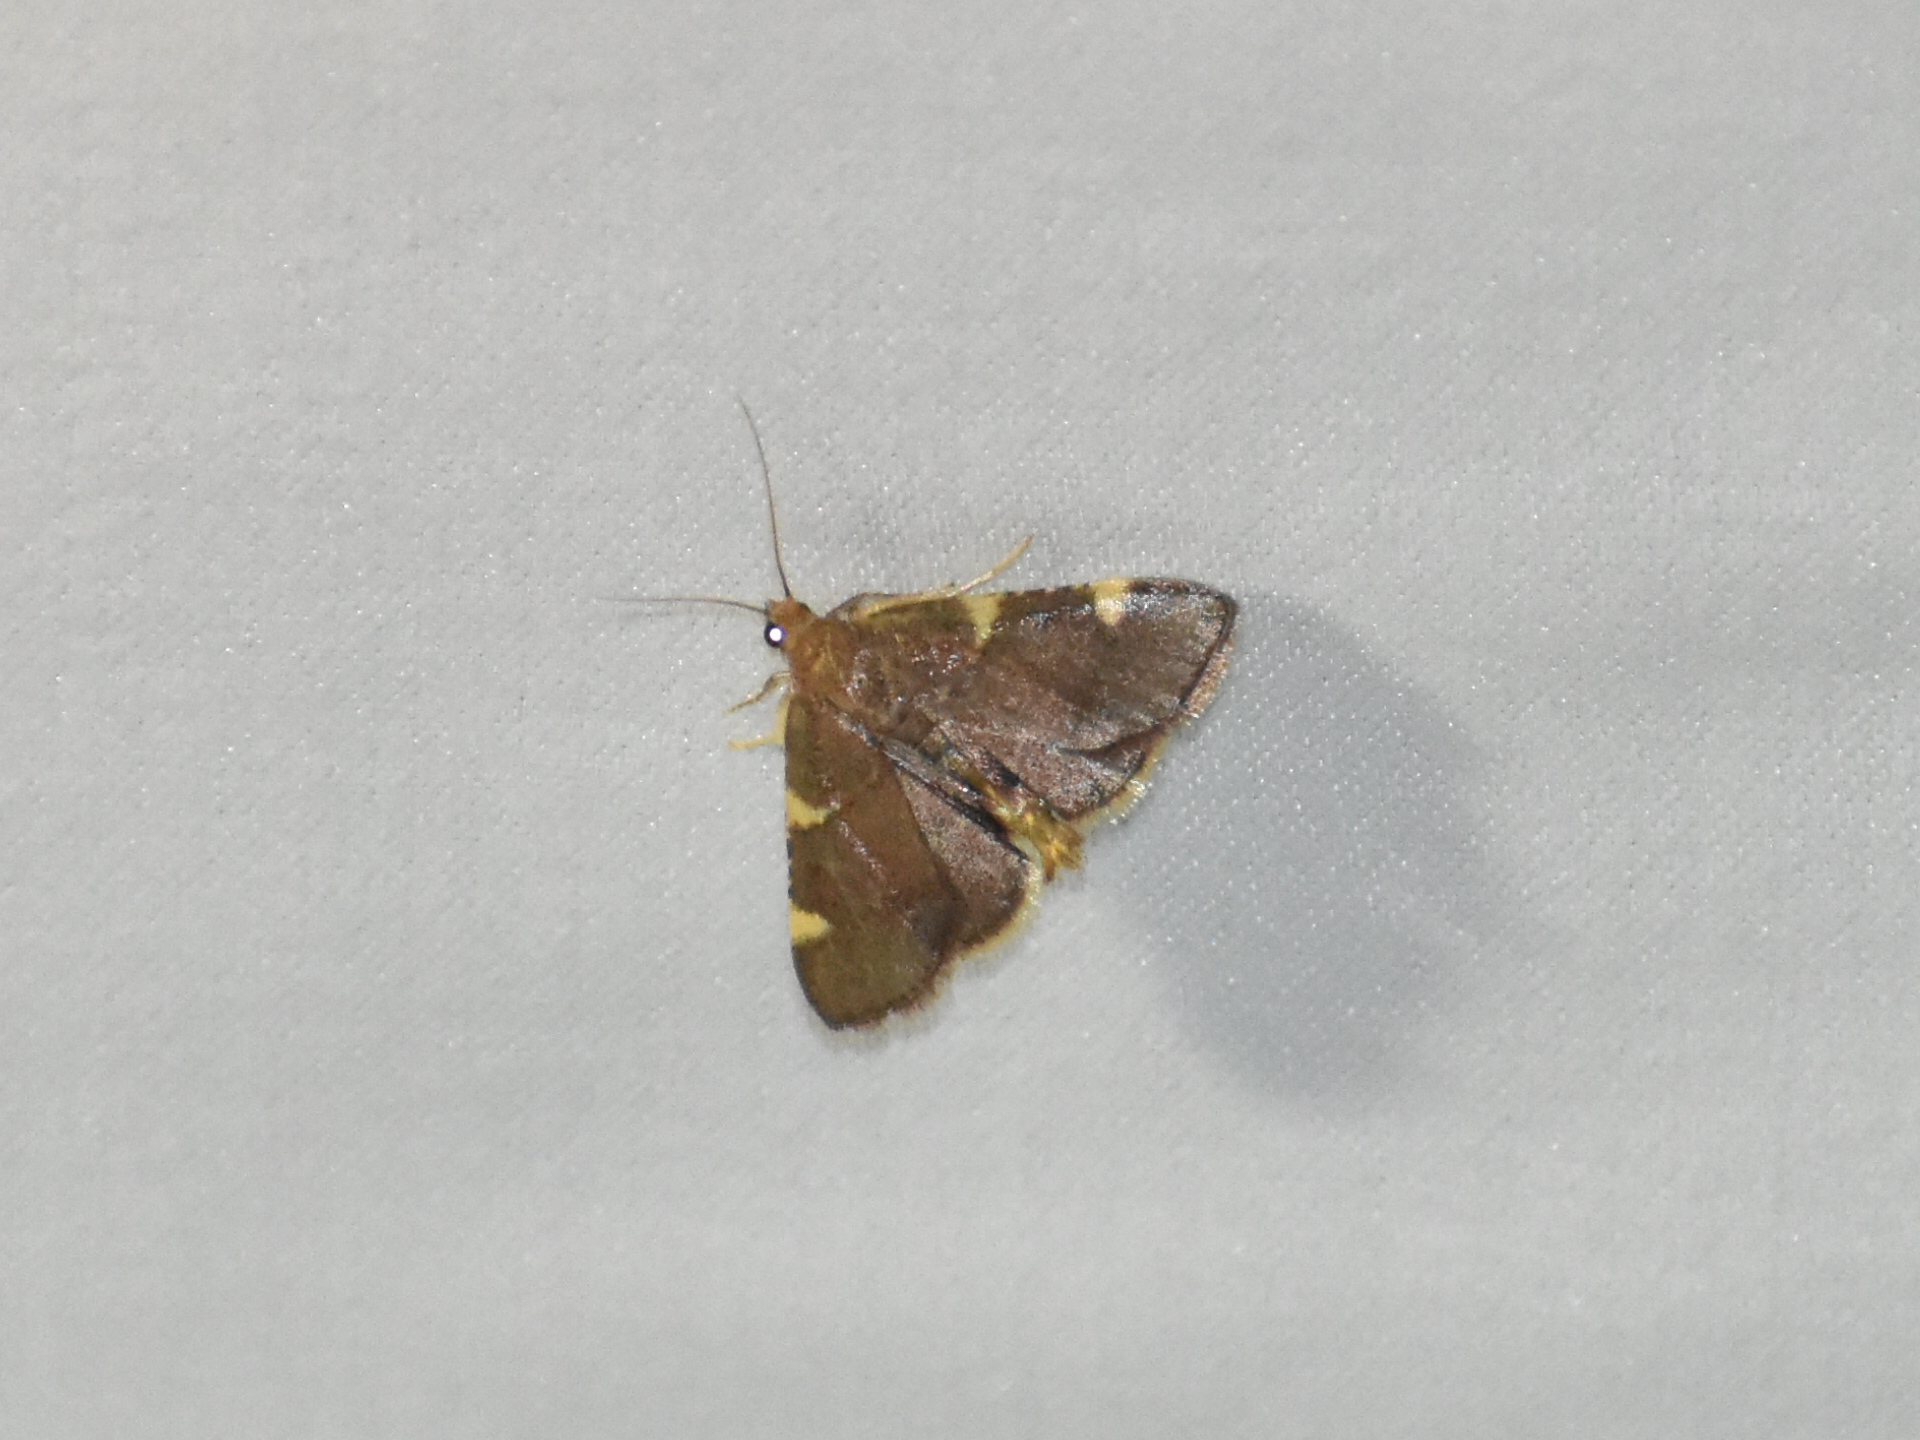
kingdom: Animalia
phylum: Arthropoda
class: Insecta
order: Lepidoptera
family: Pyralidae
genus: Hypsopygia
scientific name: Hypsopygia olinalis
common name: Yellow-fringed dolichomia moth
